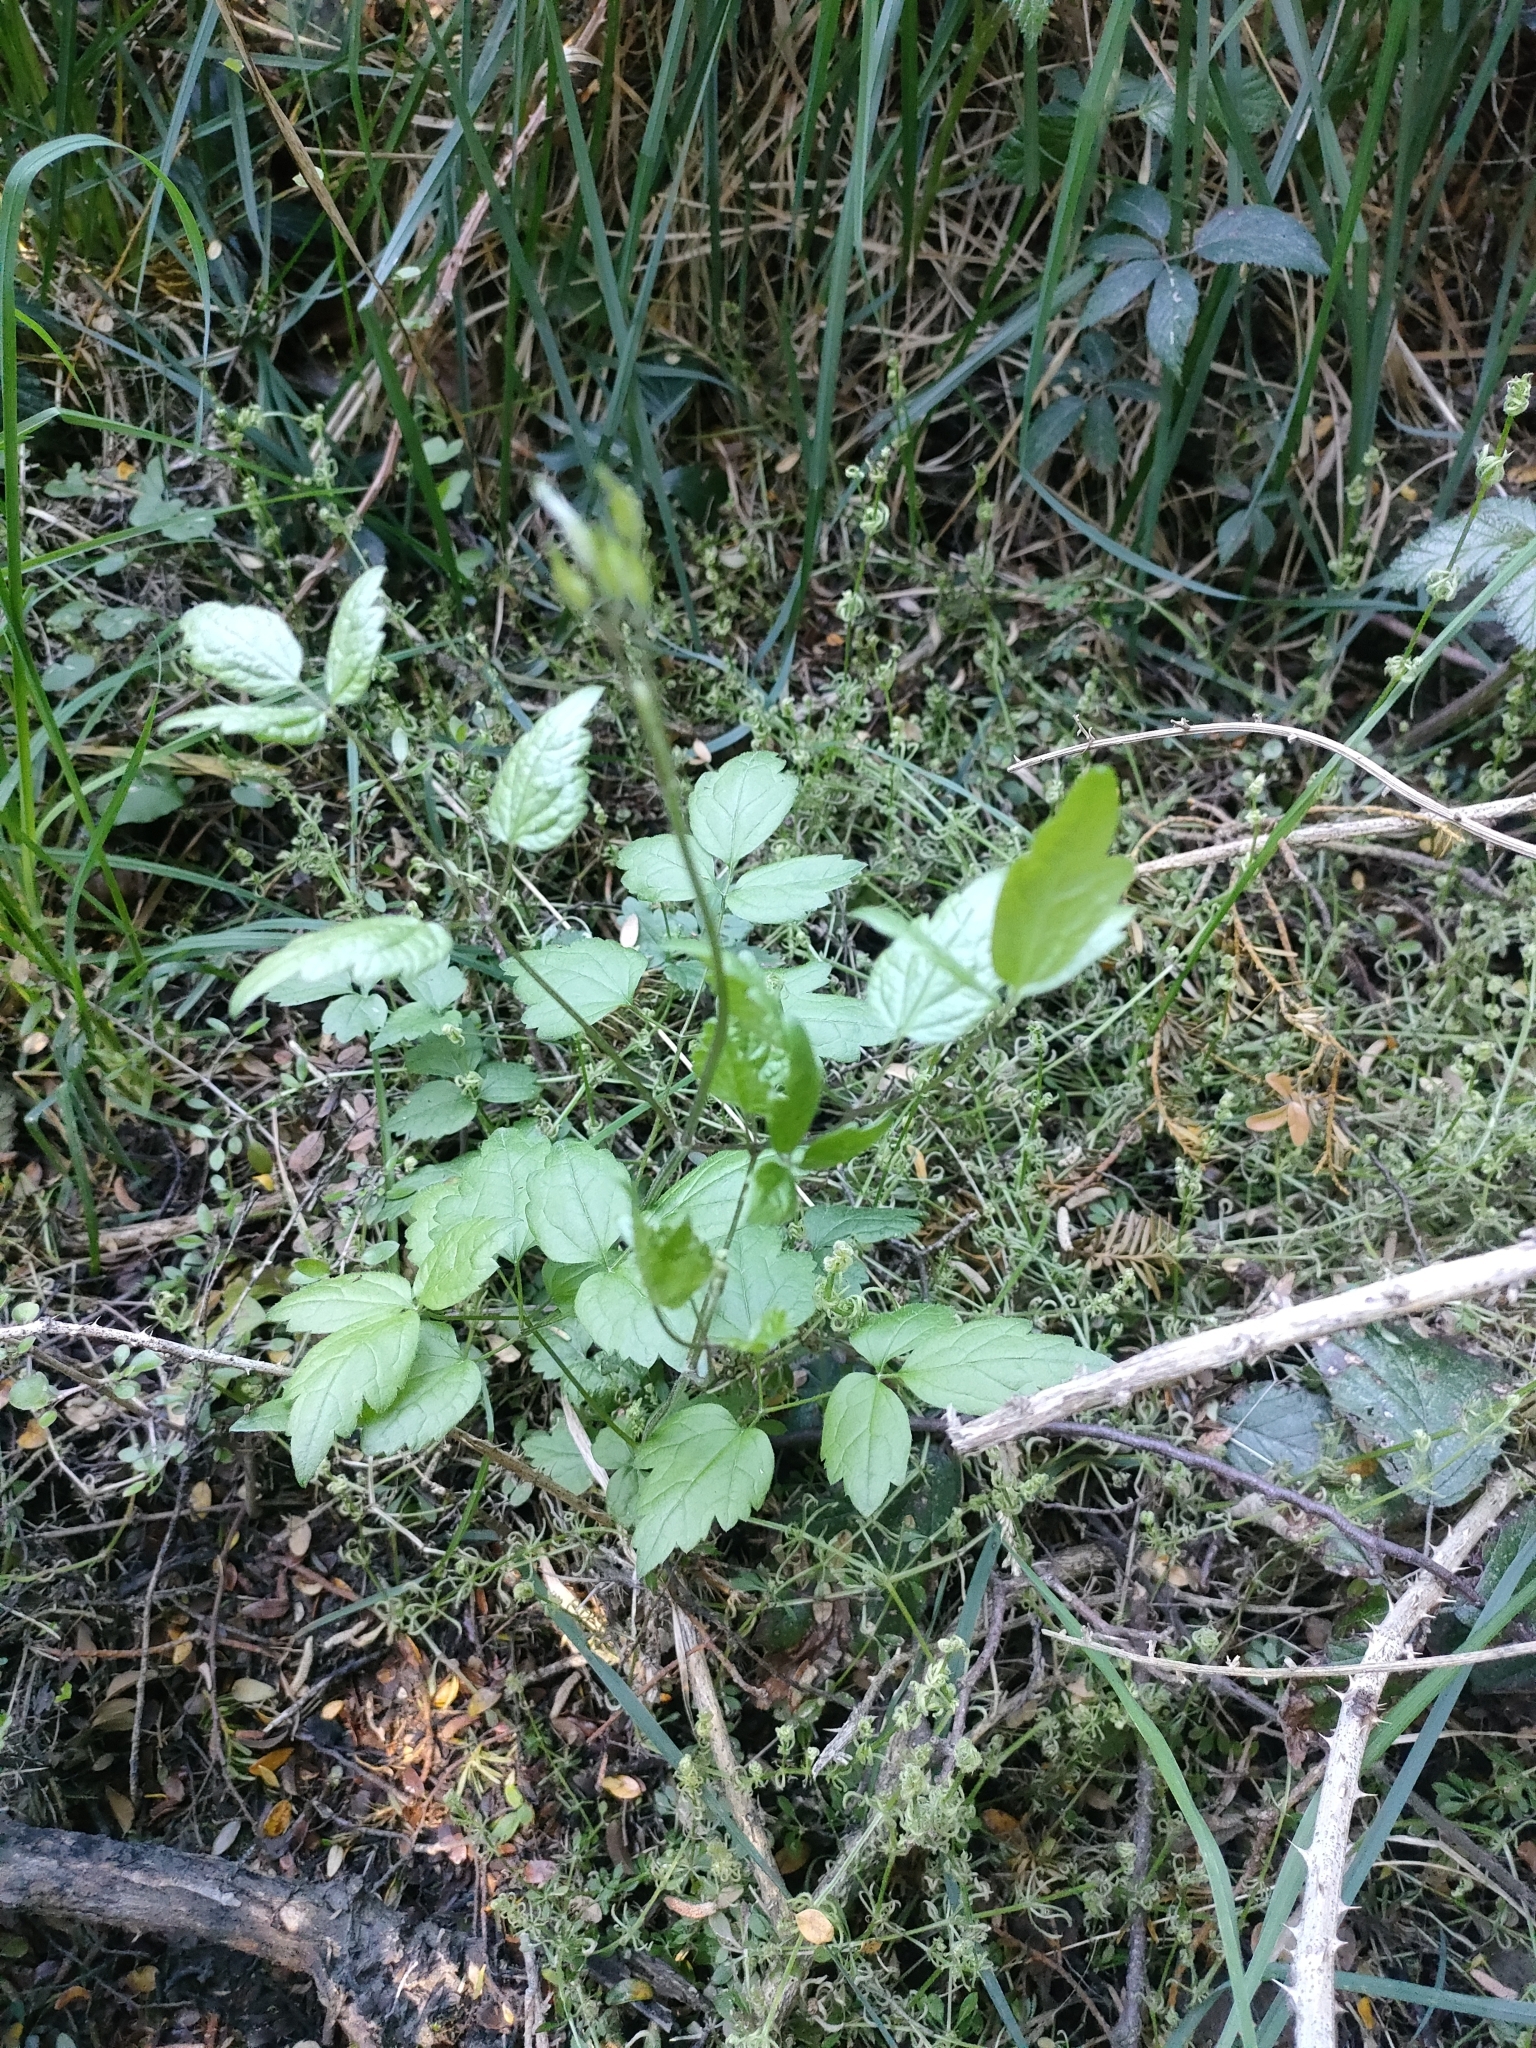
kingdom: Plantae
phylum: Tracheophyta
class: Magnoliopsida
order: Ranunculales
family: Ranunculaceae
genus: Clematis
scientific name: Clematis vitalba
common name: Evergreen clematis
